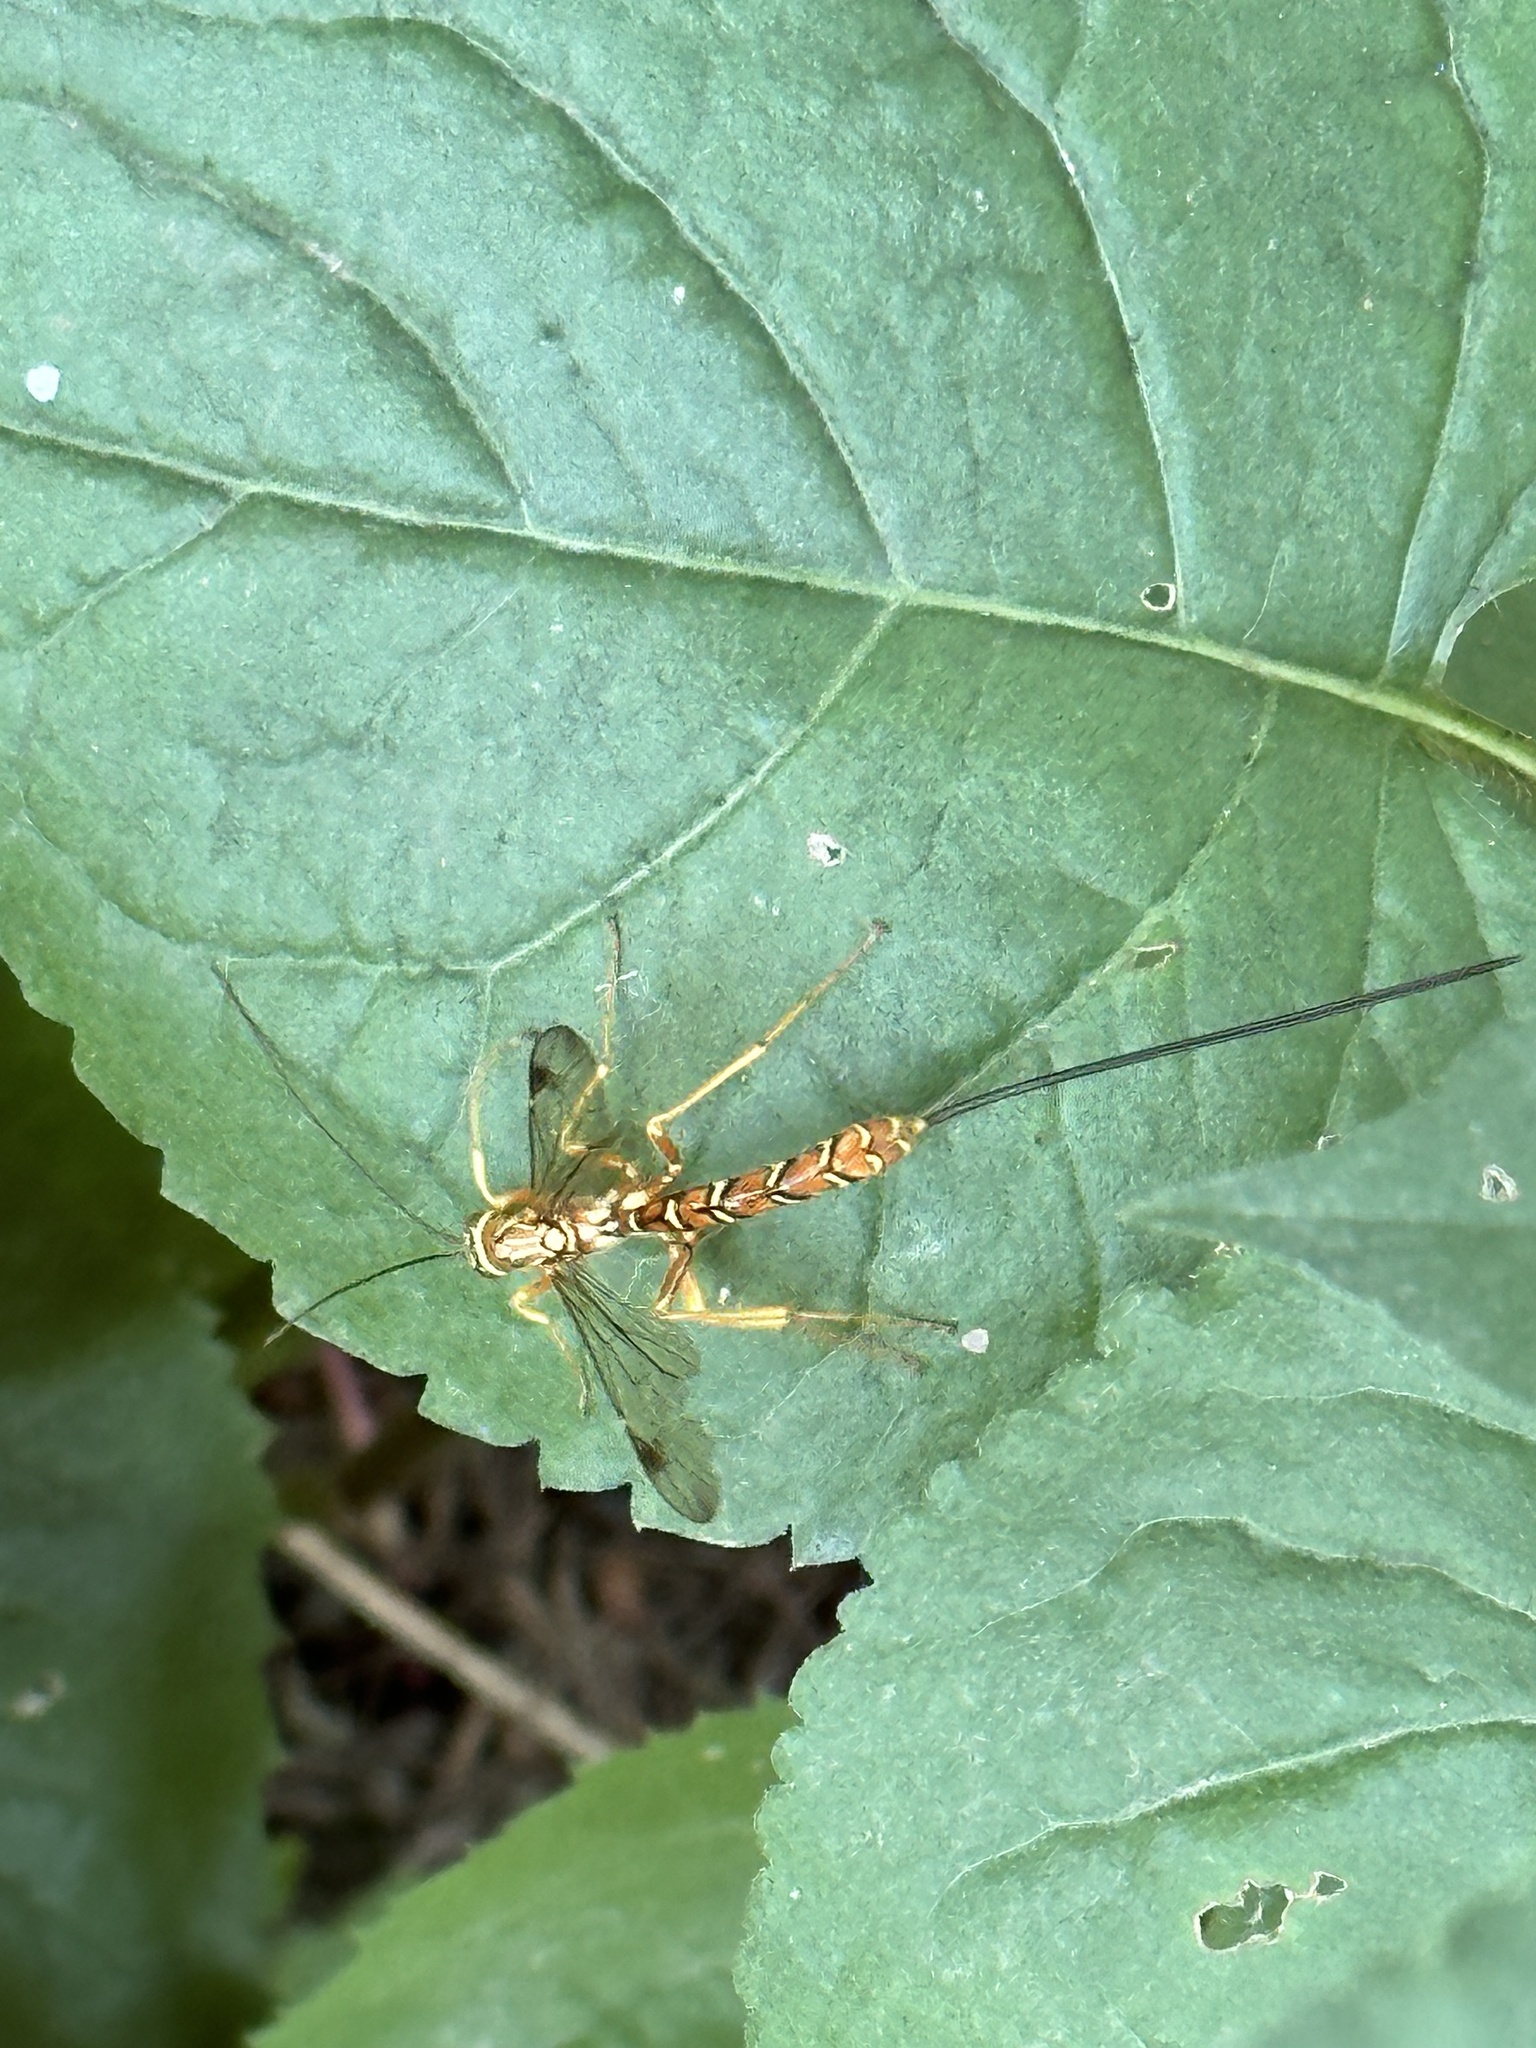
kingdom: Animalia
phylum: Arthropoda
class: Insecta
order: Hymenoptera
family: Ichneumonidae
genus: Megarhyssa
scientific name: Megarhyssa greenei
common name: Greene's giant ichneumonid wasp
